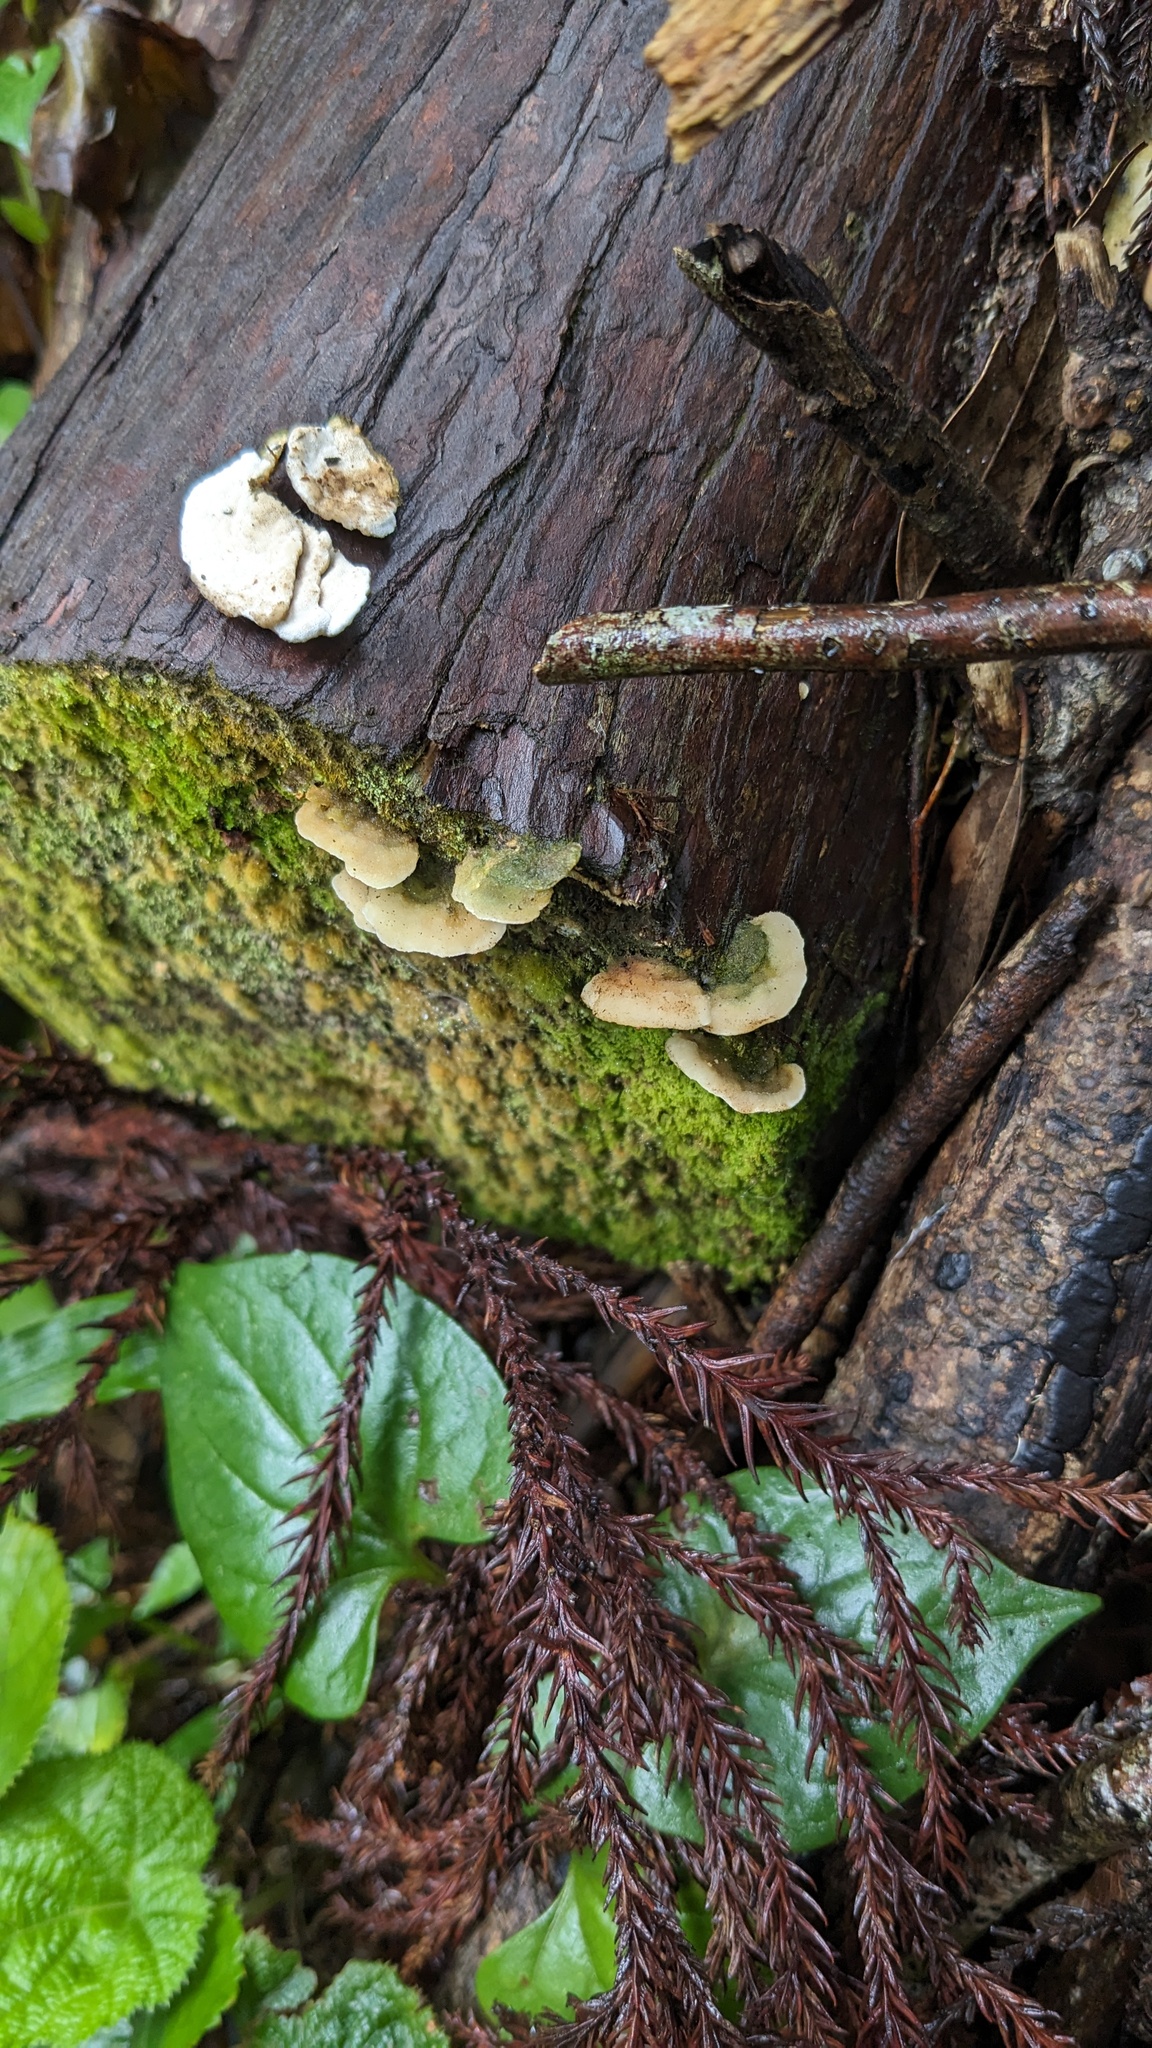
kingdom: Fungi
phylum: Basidiomycota
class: Agaricomycetes
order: Hymenochaetales
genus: Cyanotrama
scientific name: Cyanotrama
